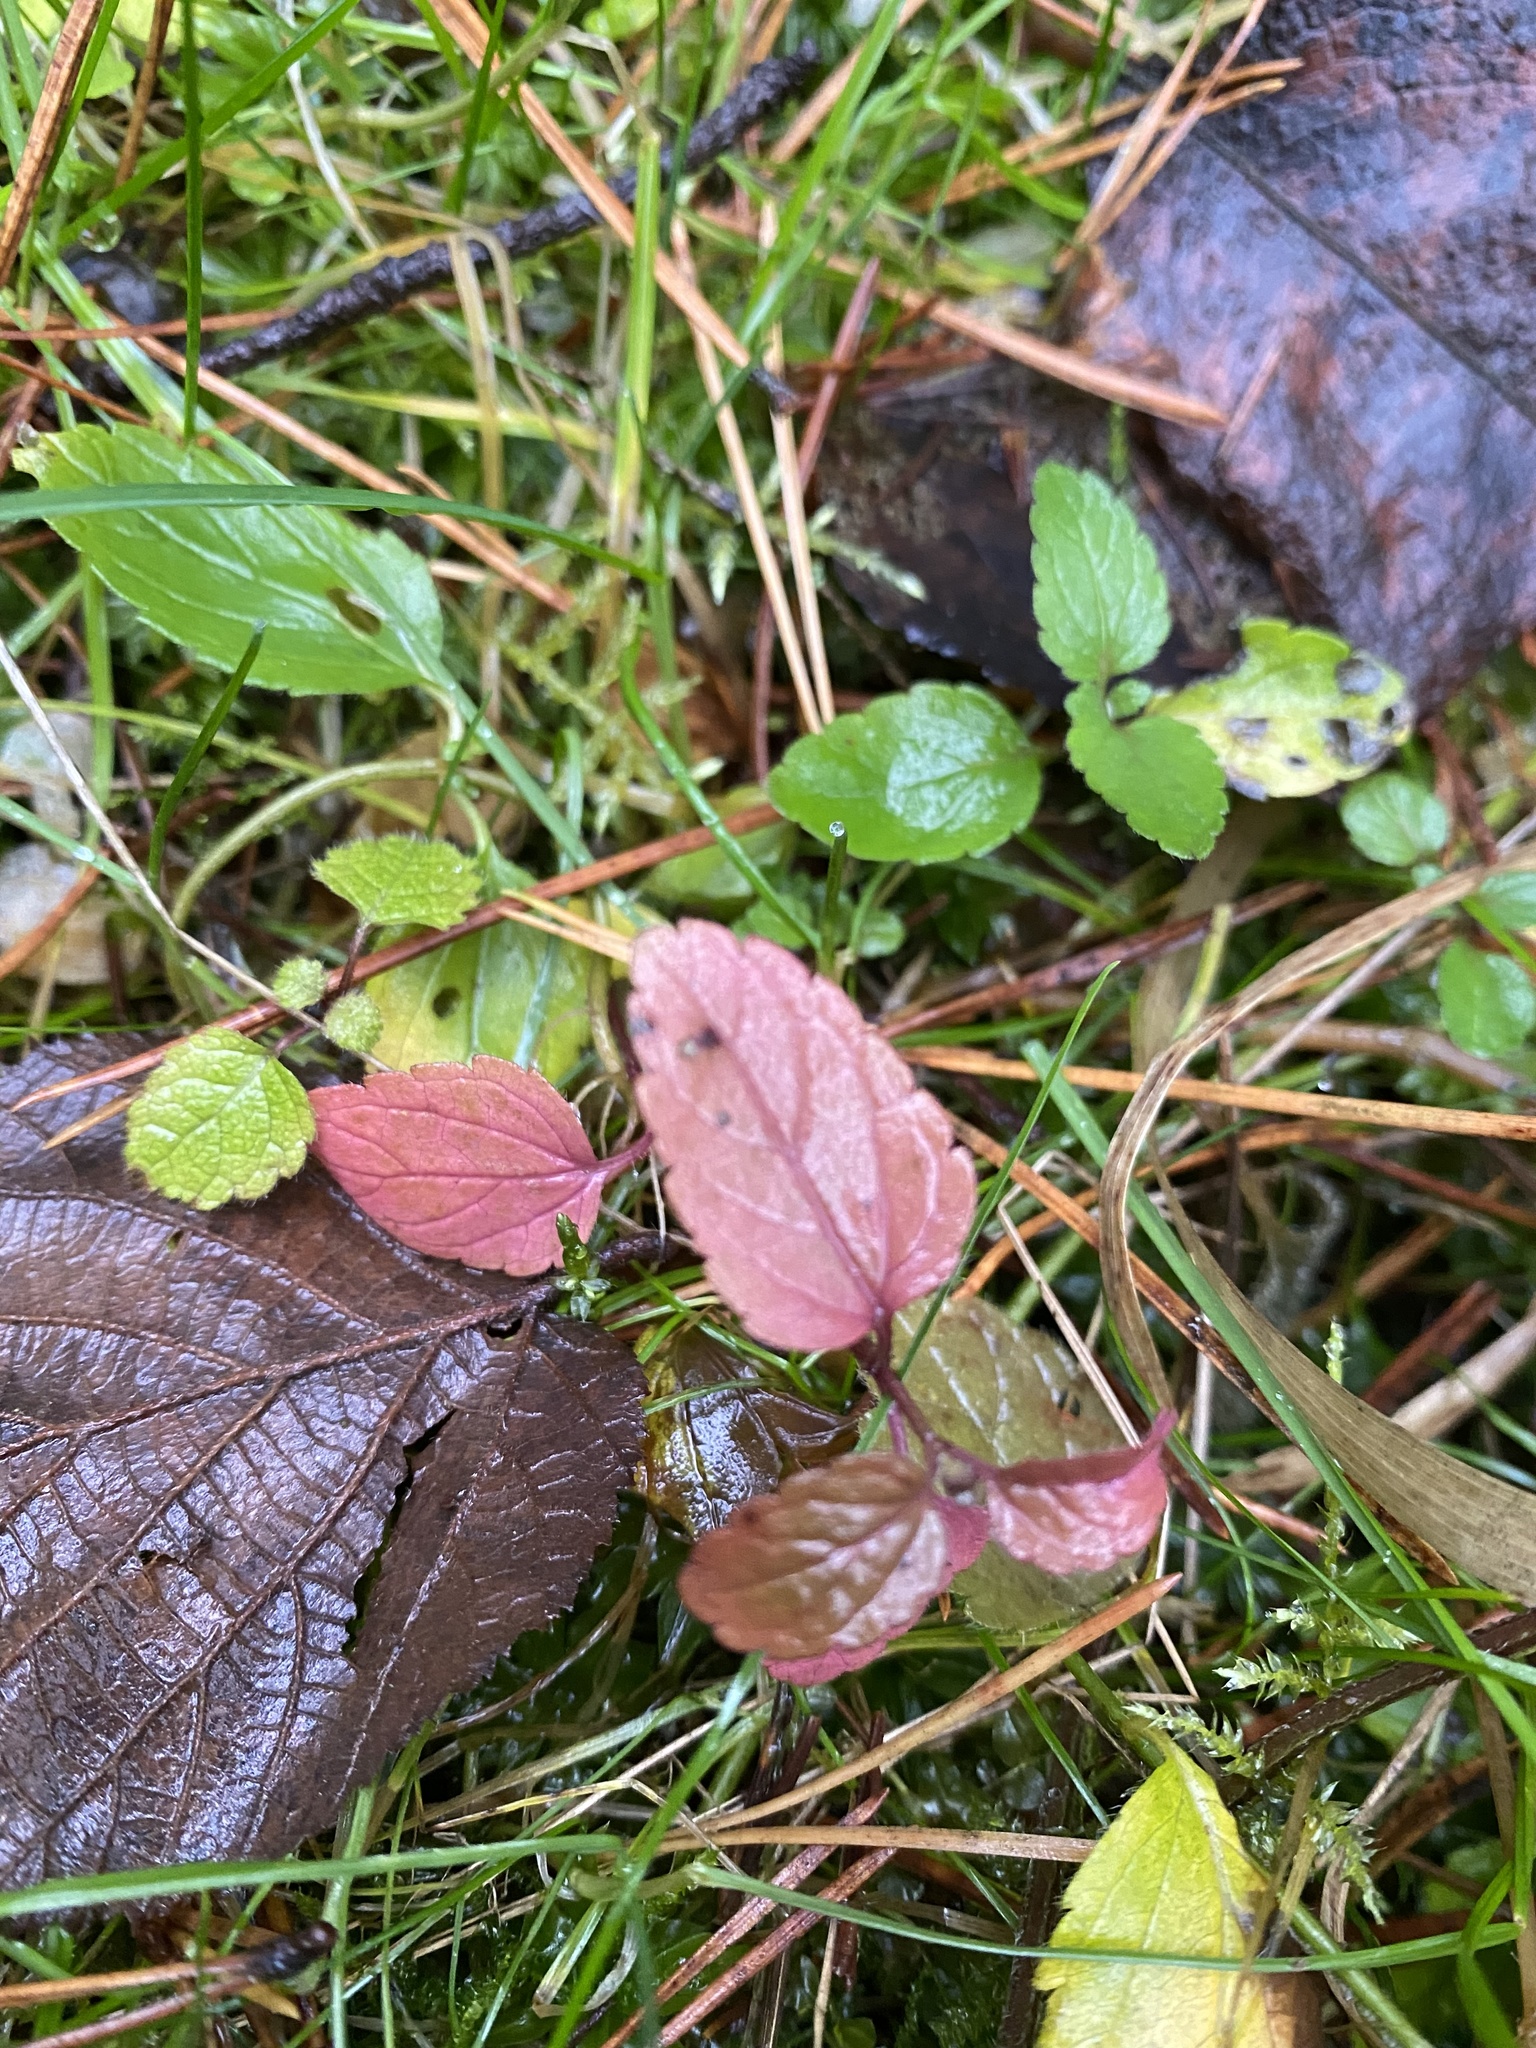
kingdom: Plantae
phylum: Tracheophyta
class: Magnoliopsida
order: Lamiales
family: Plantaginaceae
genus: Veronica
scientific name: Veronica chamaedrys
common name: Germander speedwell
